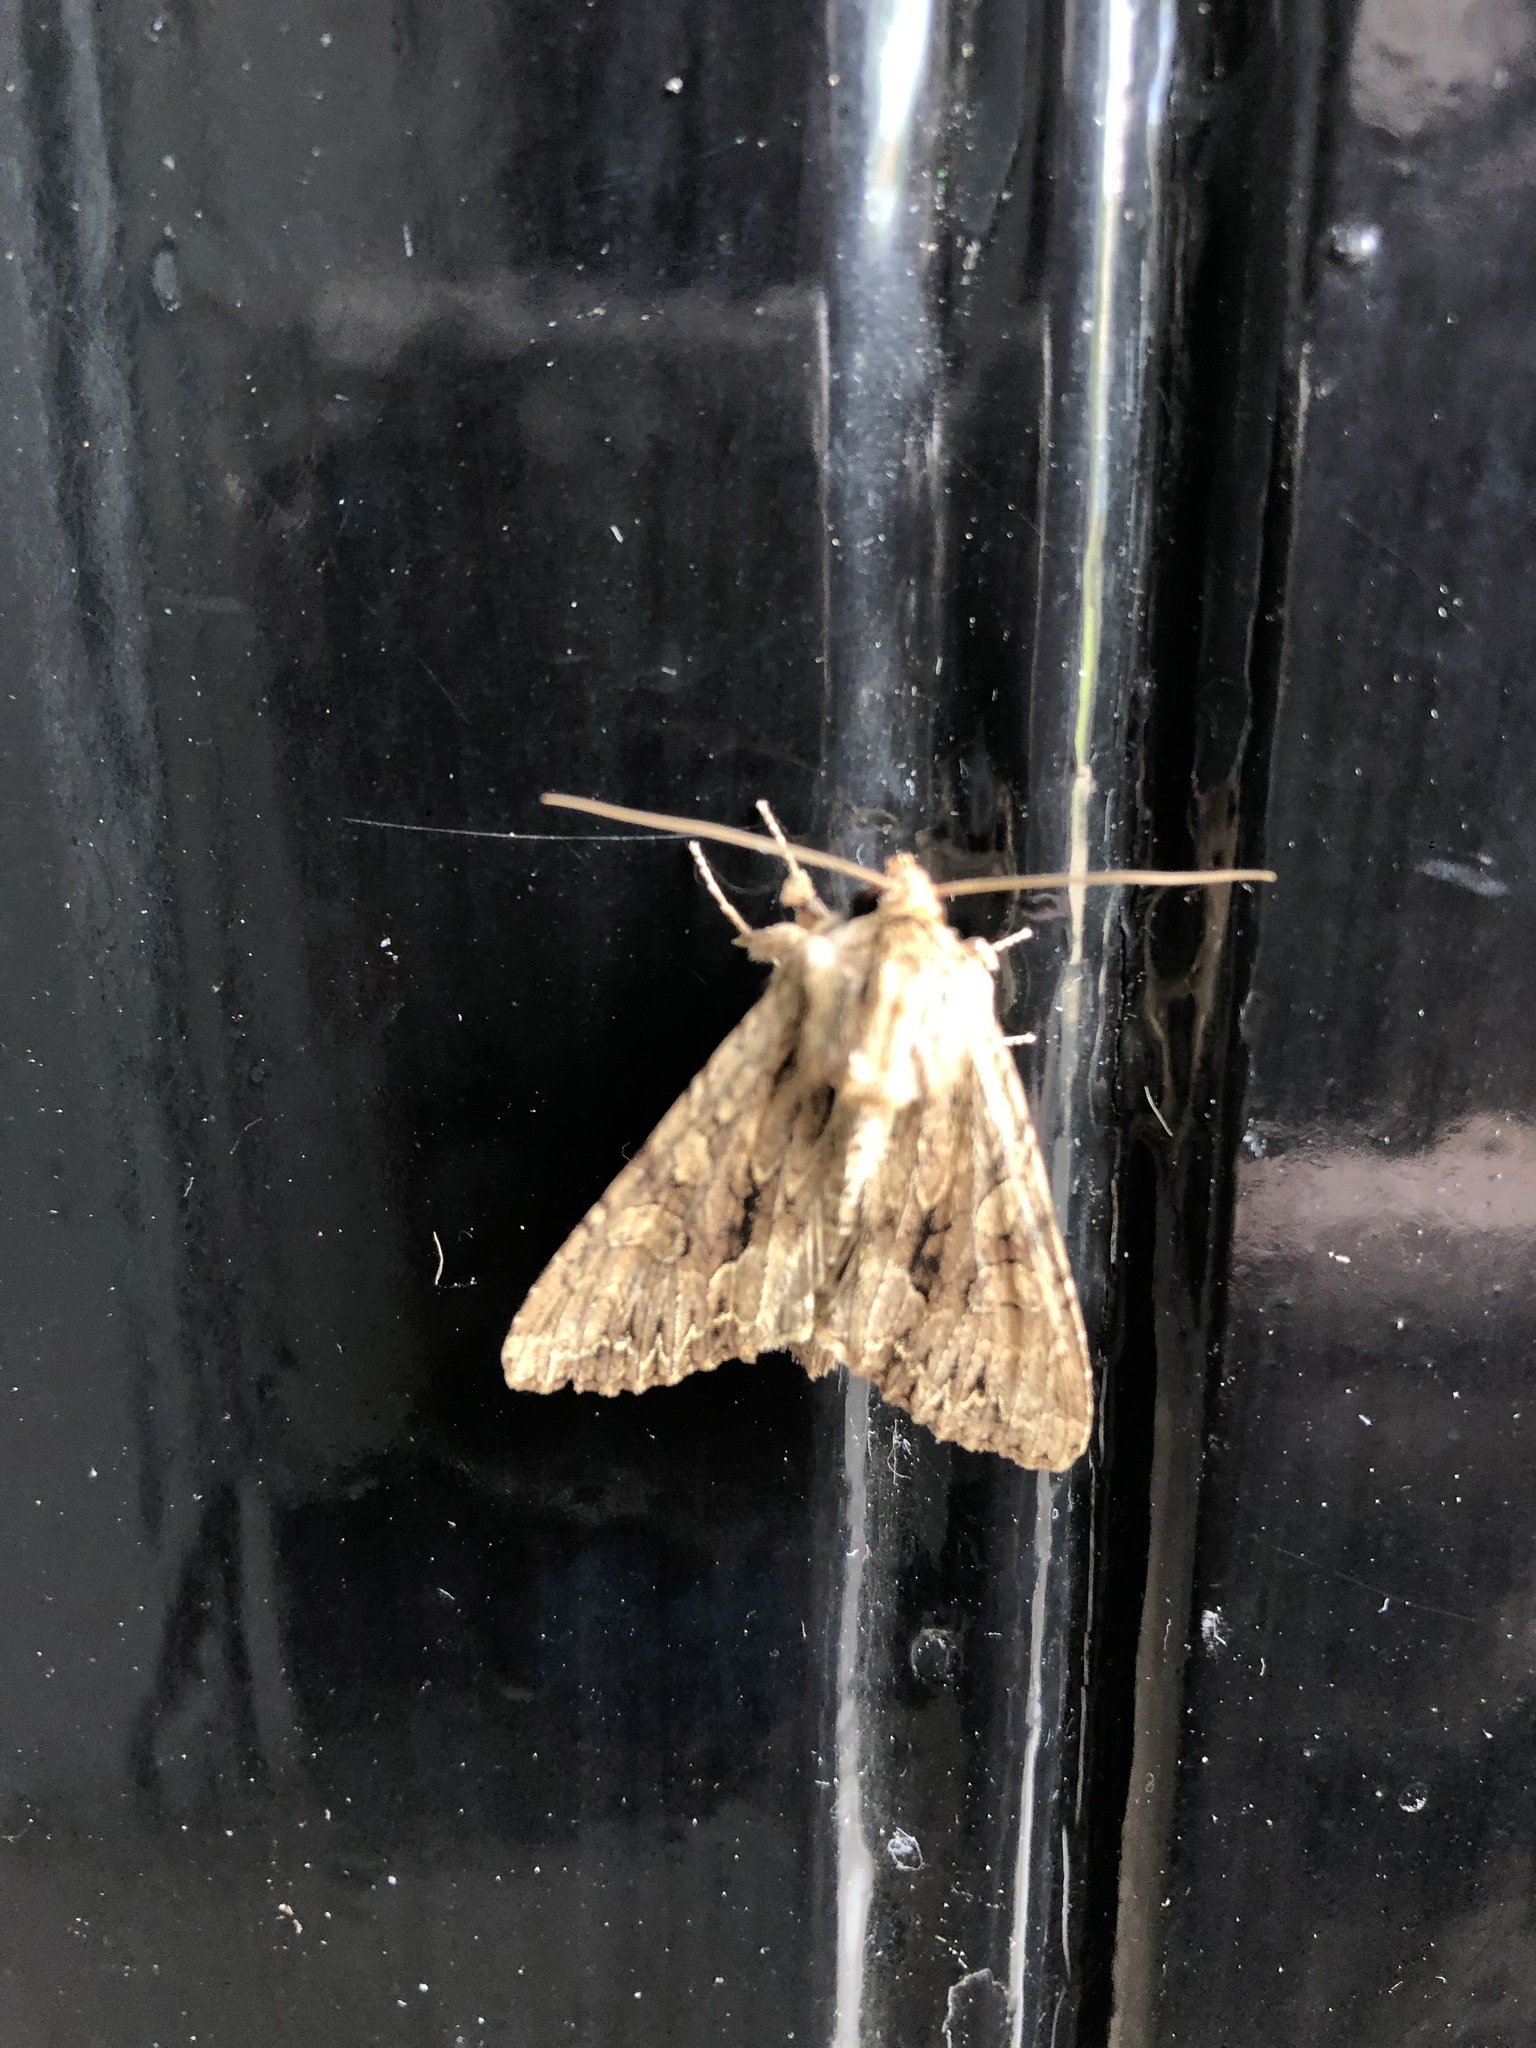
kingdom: Animalia
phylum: Arthropoda
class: Insecta
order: Lepidoptera
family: Noctuidae
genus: Apamea
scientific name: Apamea monoglypha
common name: Dark arches
